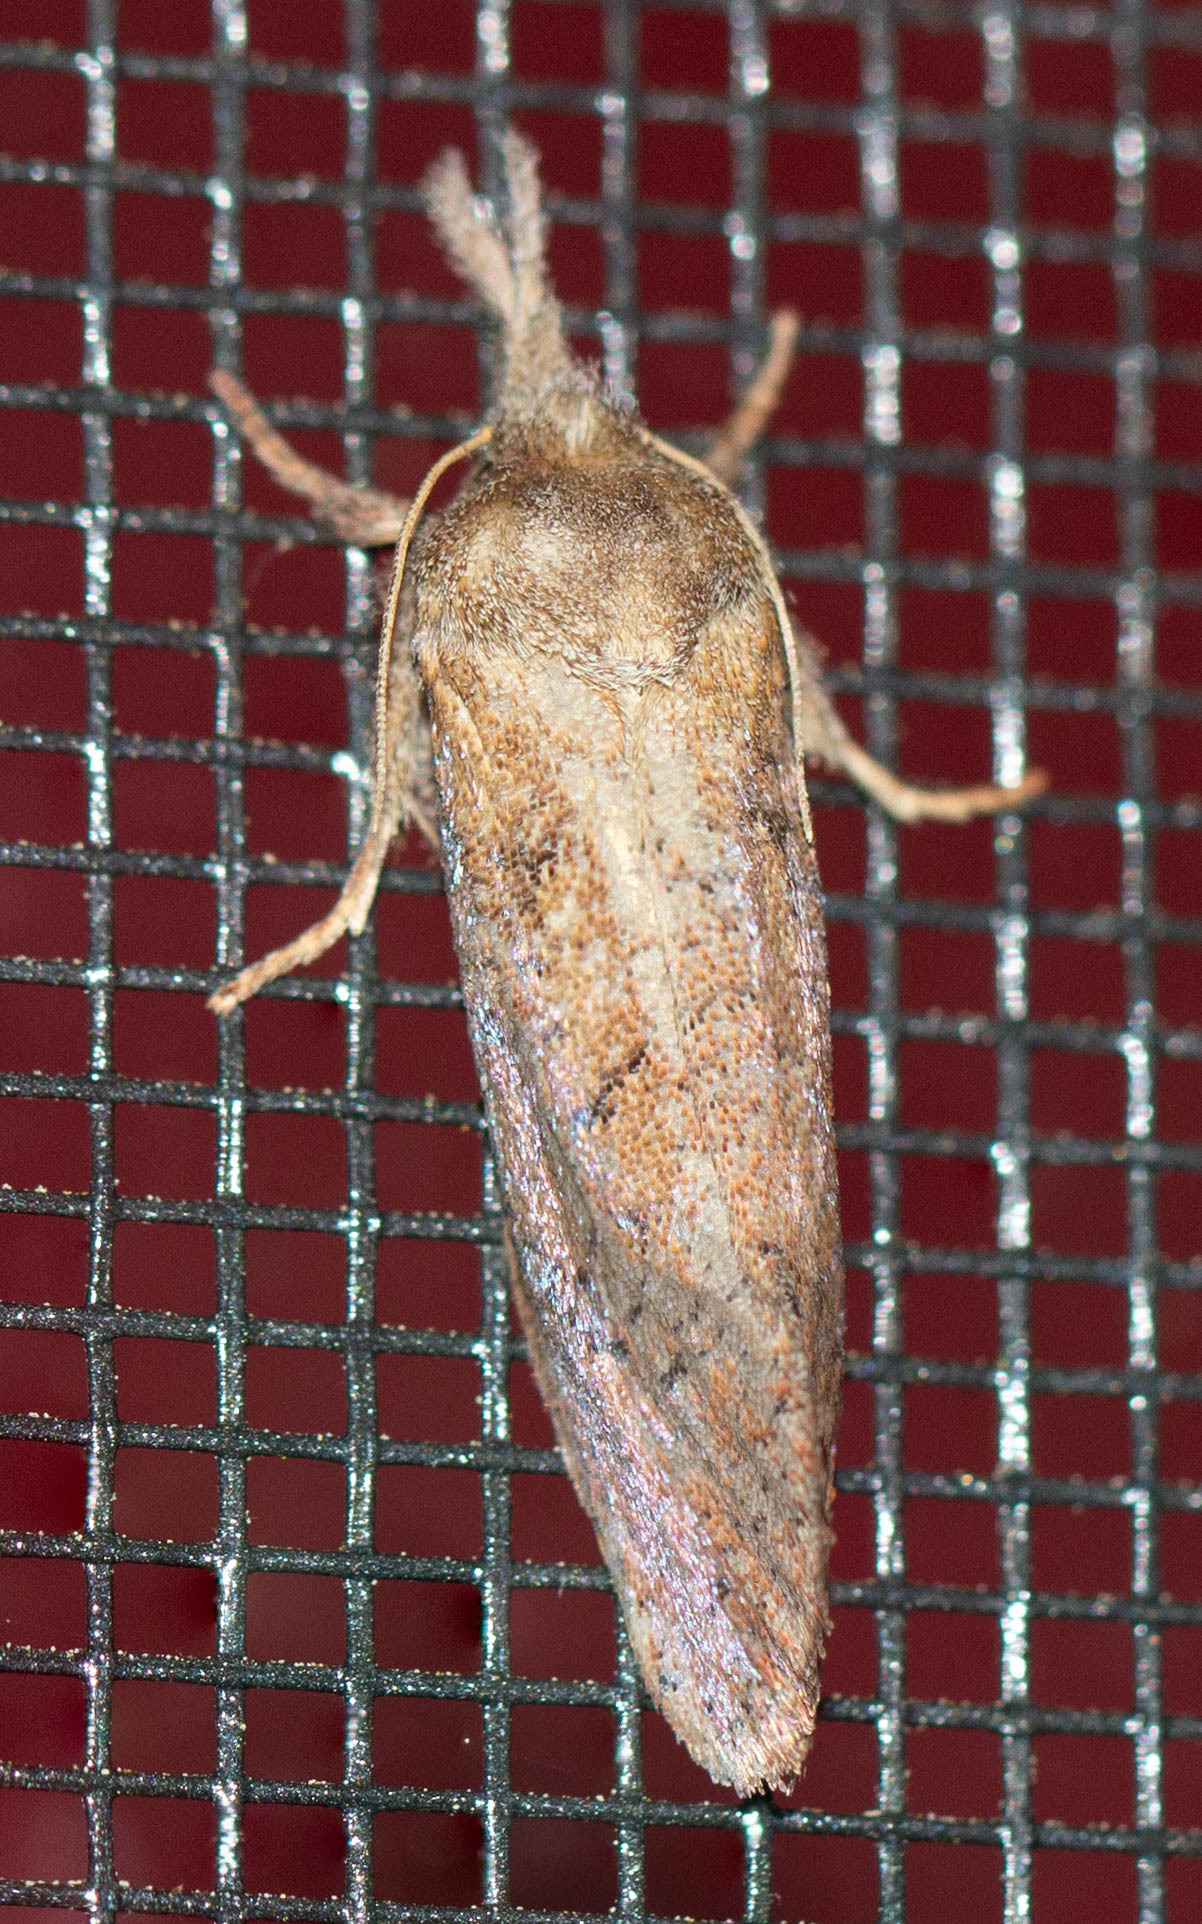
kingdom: Animalia
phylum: Arthropoda
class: Insecta
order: Lepidoptera
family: Tineidae
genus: Acrolophus
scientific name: Acrolophus plumifrontella
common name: Eastern grass tubeworm moth
